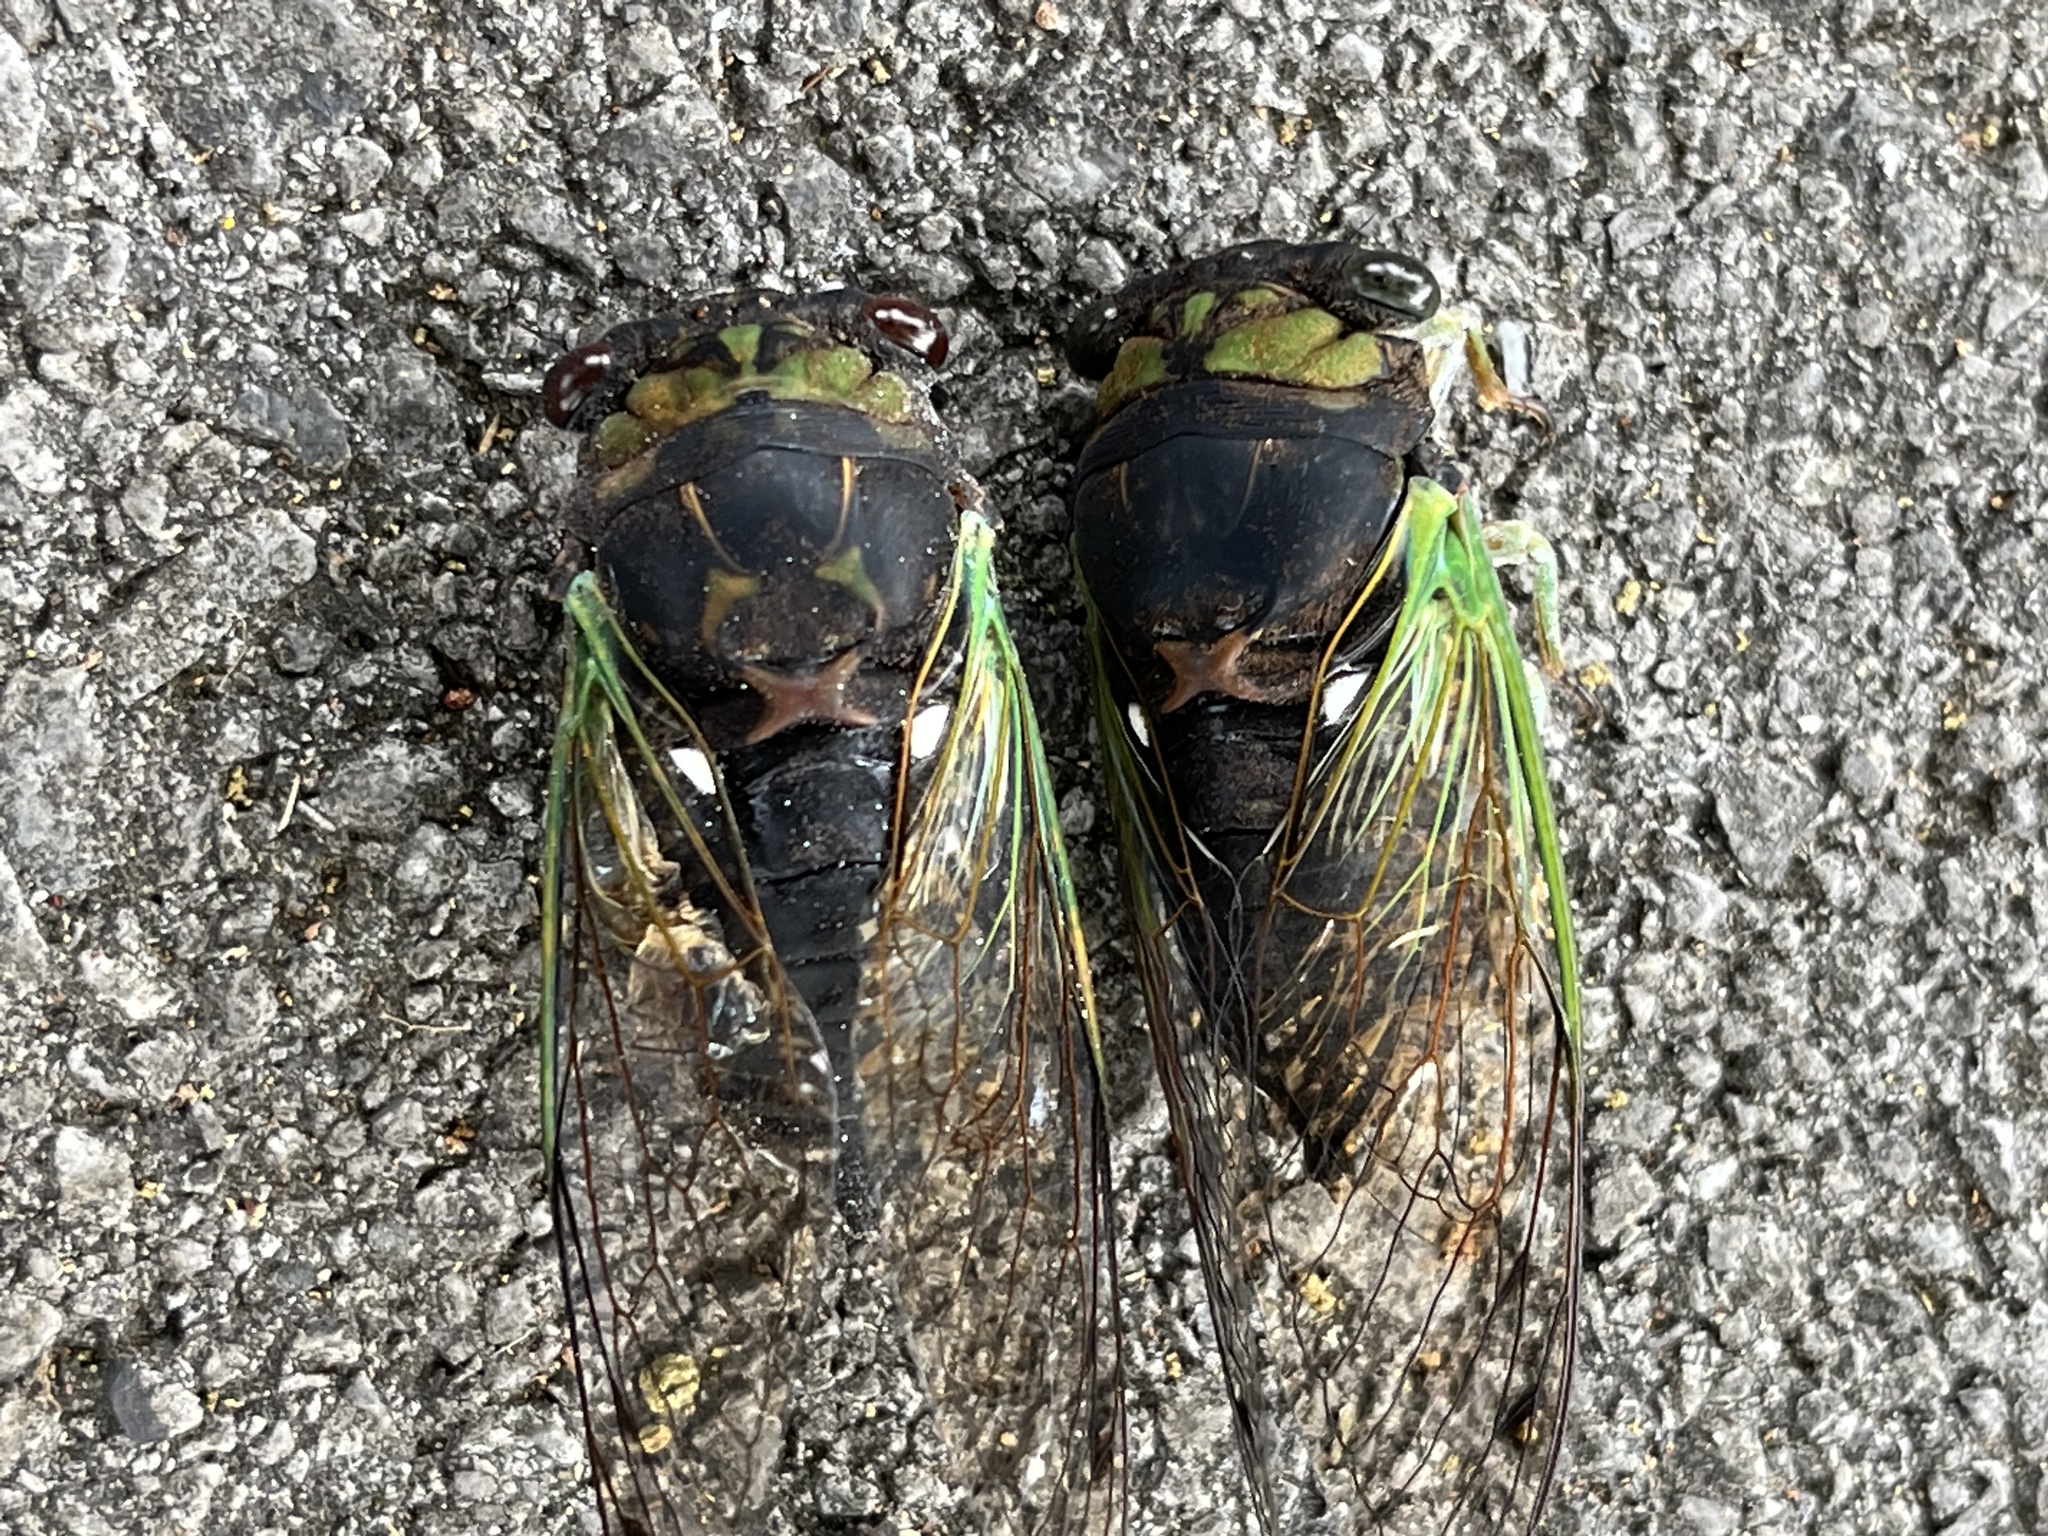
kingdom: Animalia
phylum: Arthropoda
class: Insecta
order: Hemiptera
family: Cicadidae
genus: Neotibicen
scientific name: Neotibicen tibicen
